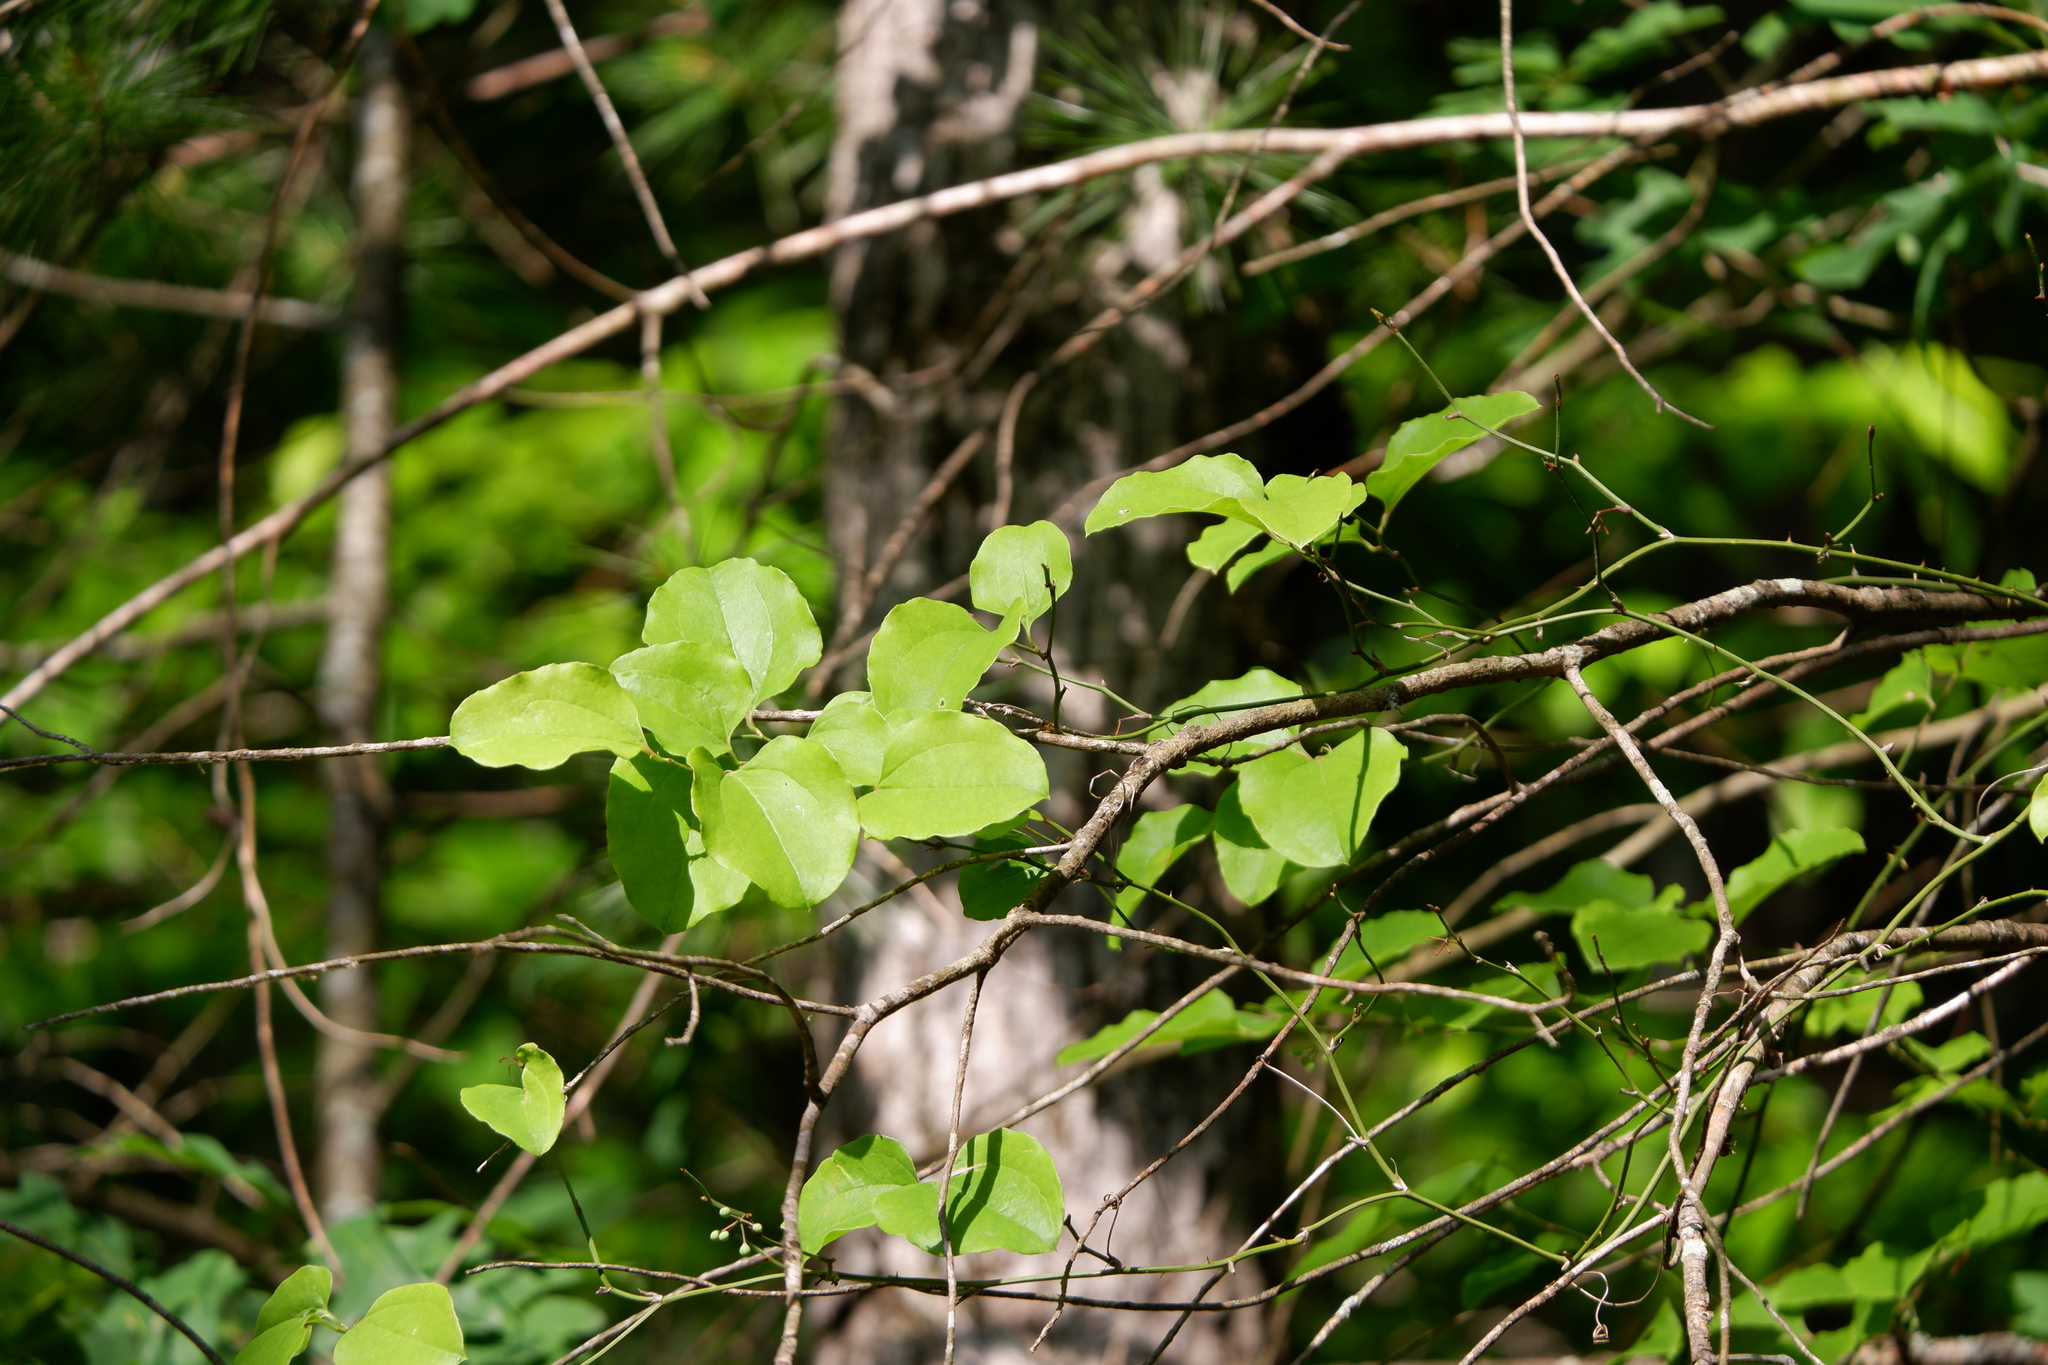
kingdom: Plantae
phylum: Tracheophyta
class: Liliopsida
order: Liliales
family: Smilacaceae
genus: Smilax
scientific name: Smilax rotundifolia
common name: Bullbriar
